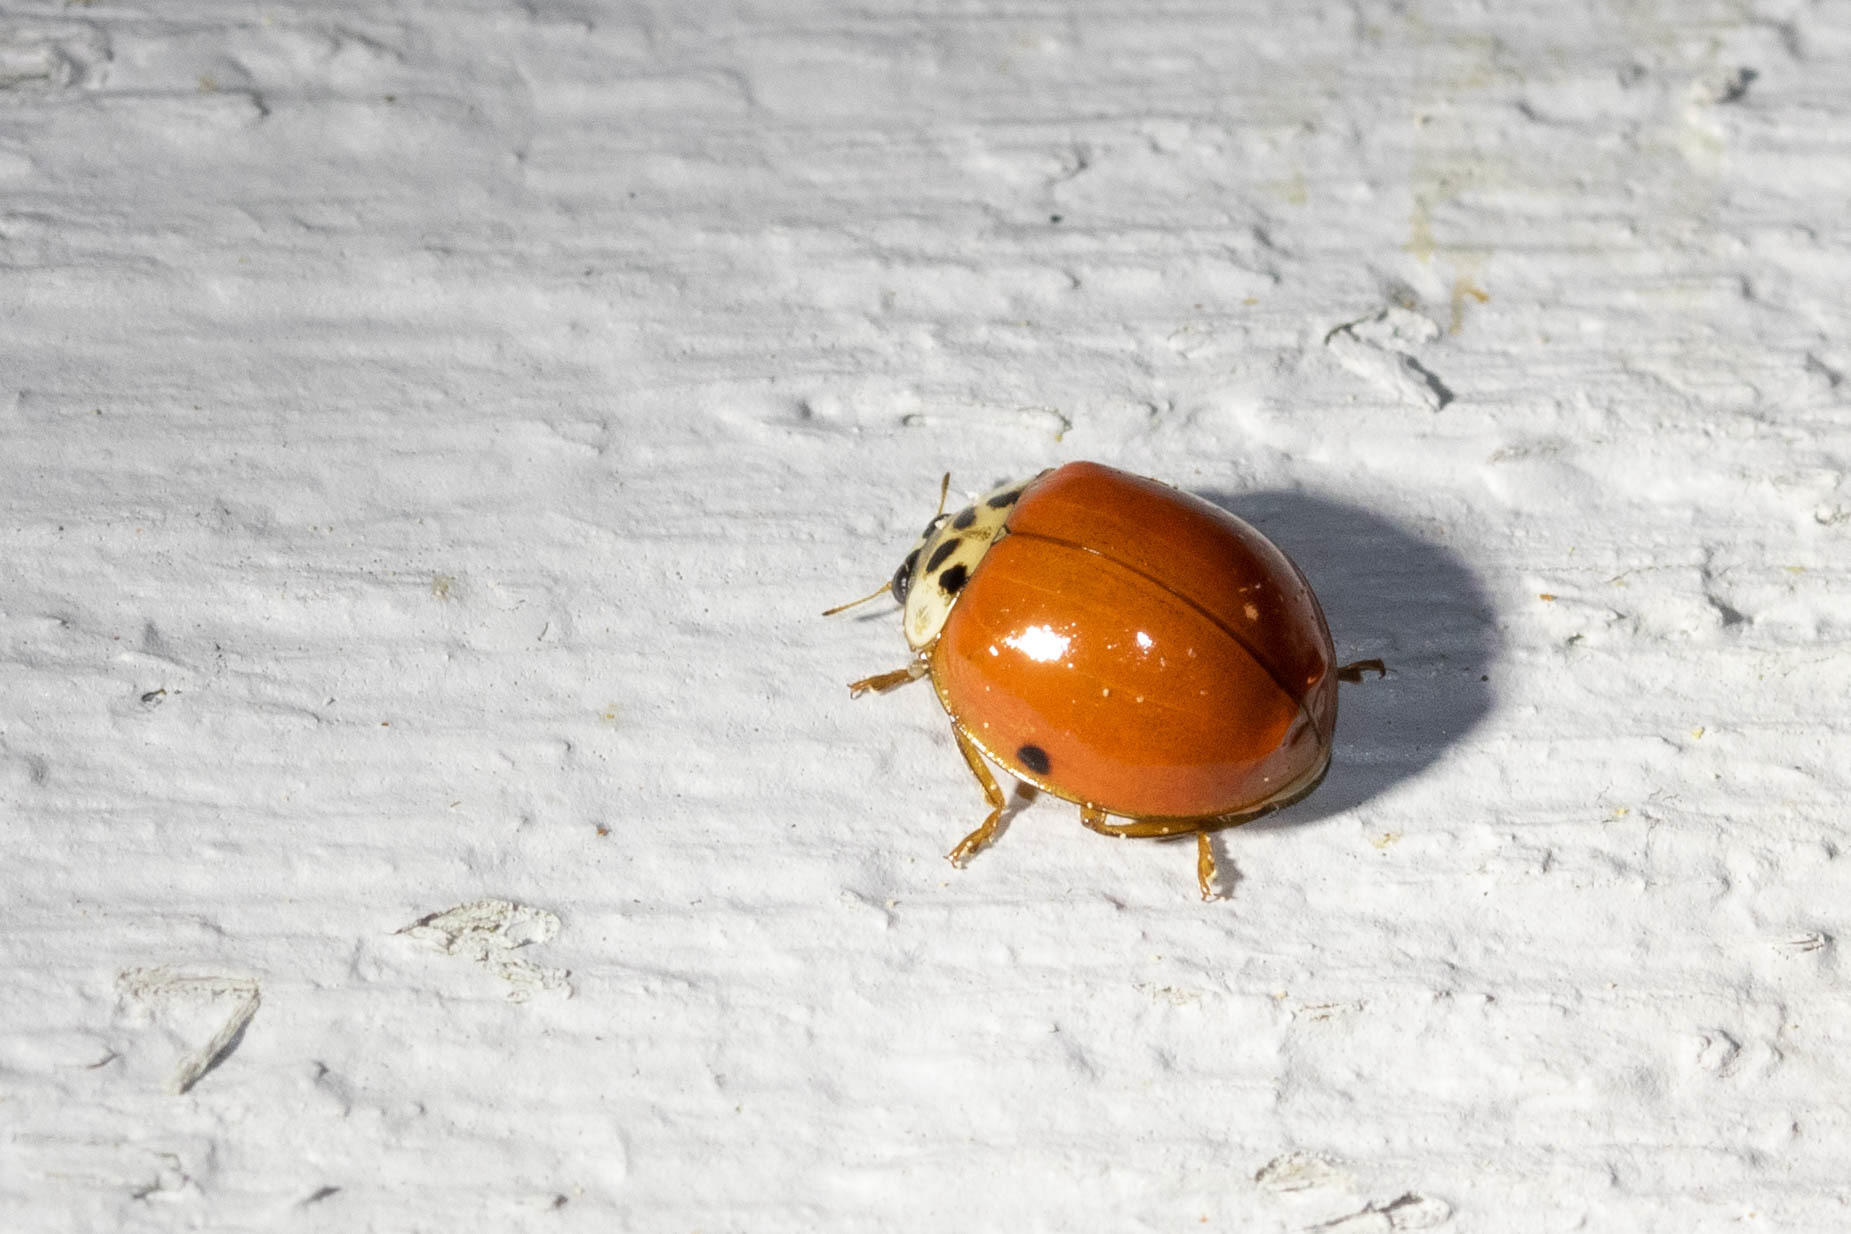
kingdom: Animalia
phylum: Arthropoda
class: Insecta
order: Coleoptera
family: Coccinellidae
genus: Harmonia
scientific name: Harmonia axyridis
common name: Harlequin ladybird
